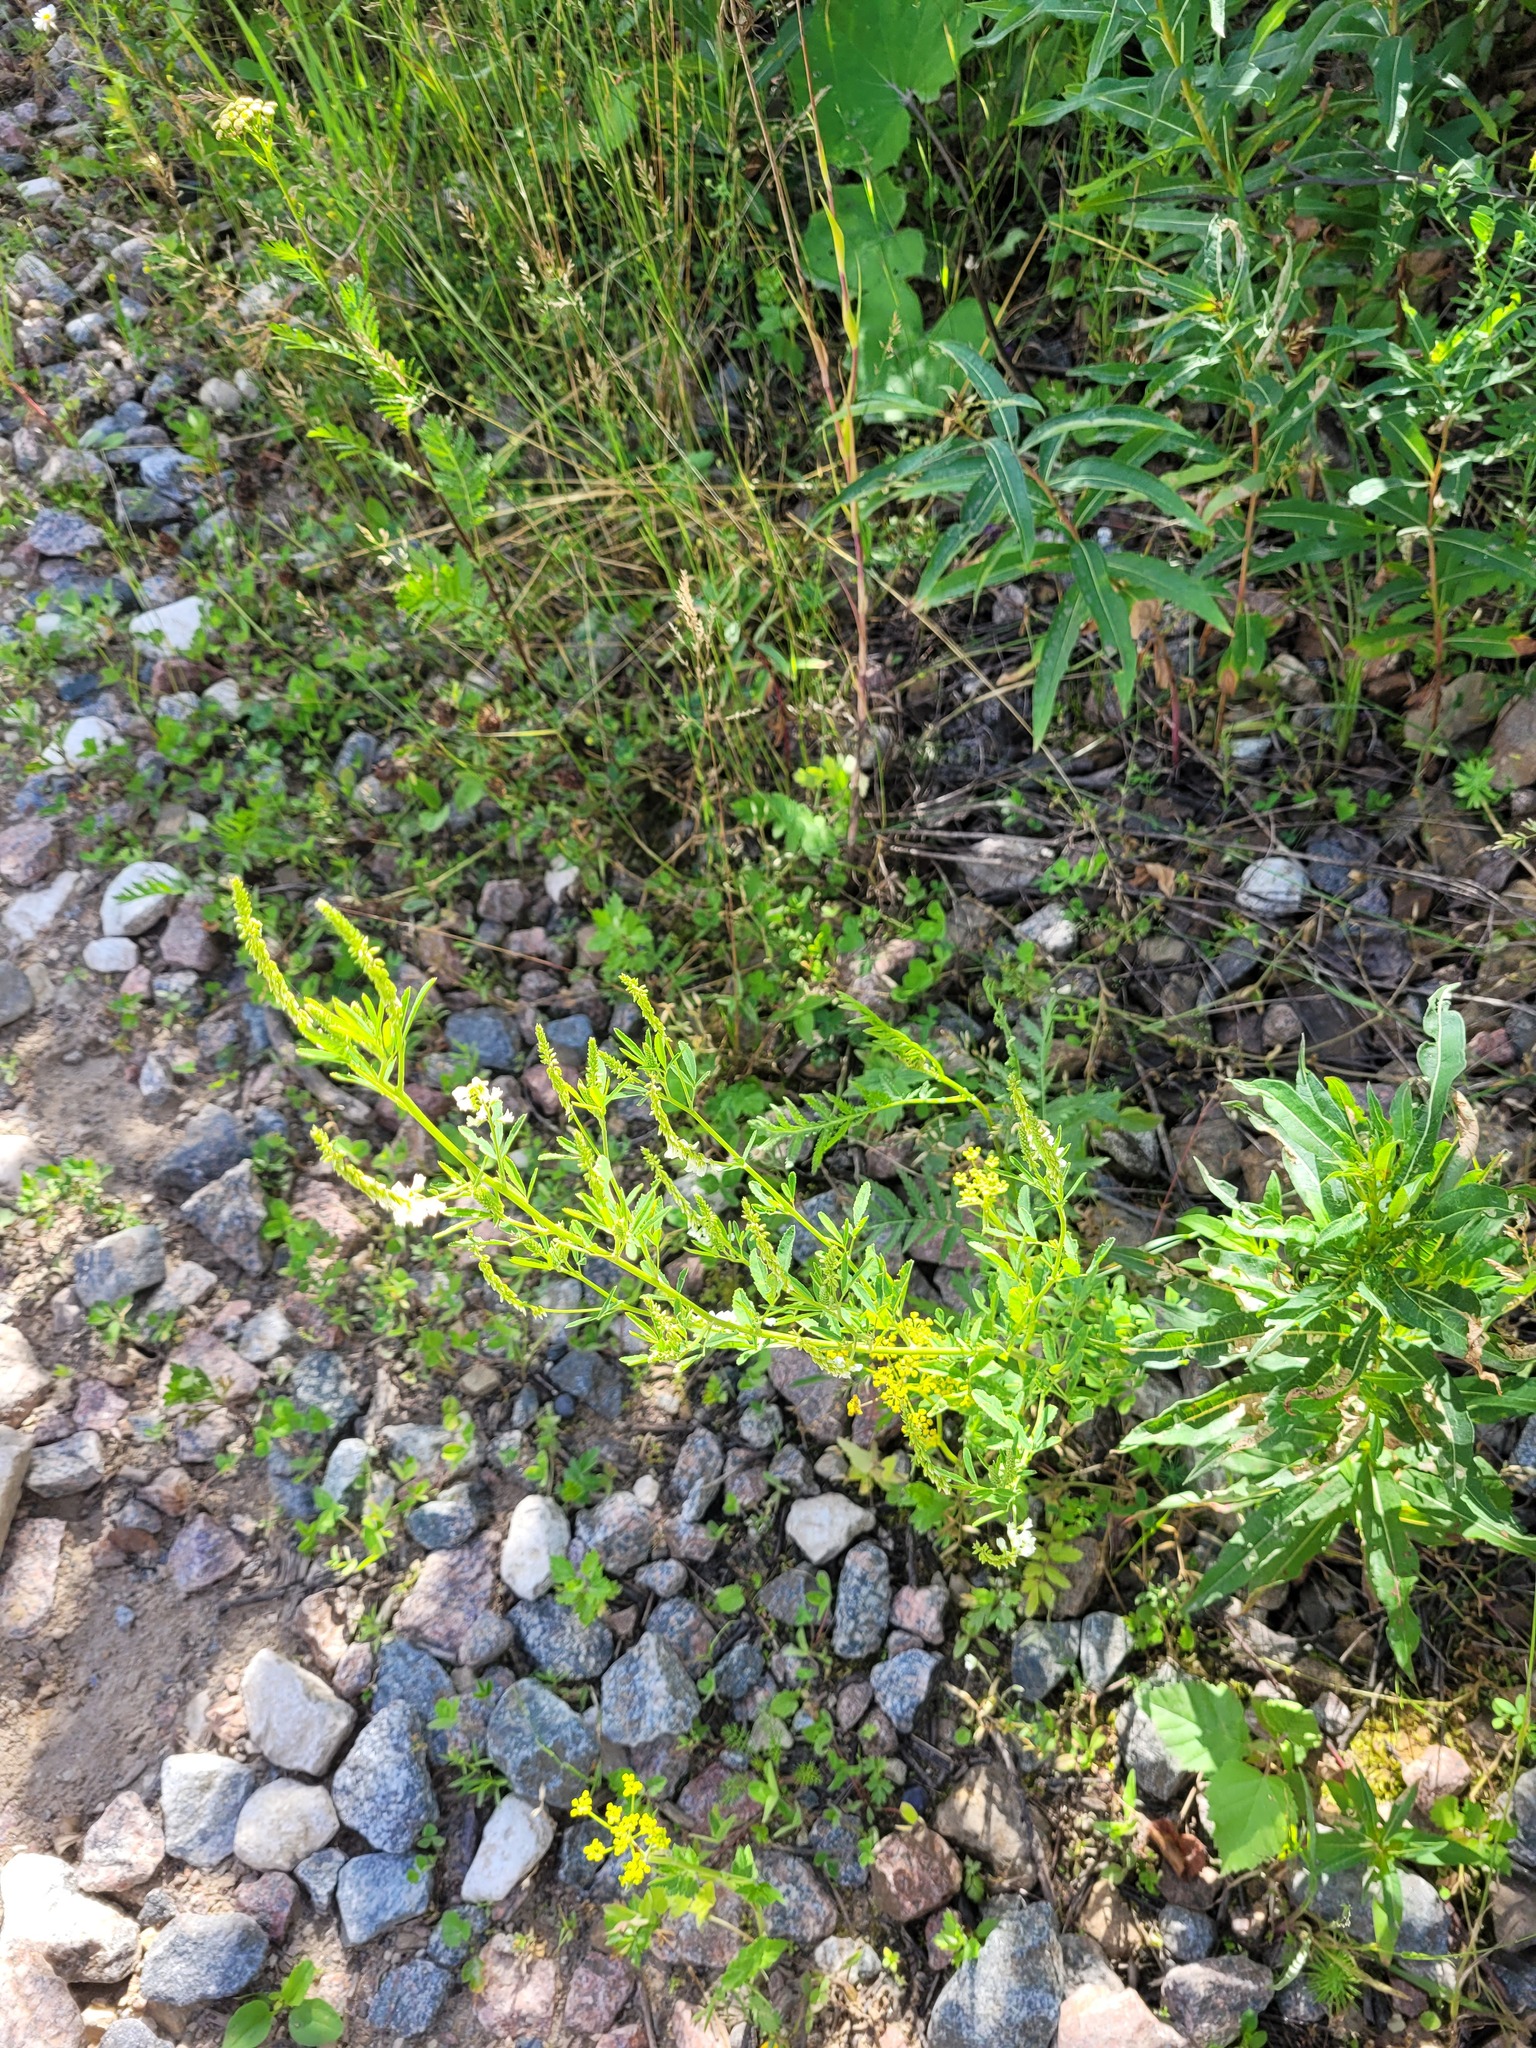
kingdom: Plantae
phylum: Tracheophyta
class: Magnoliopsida
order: Fabales
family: Fabaceae
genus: Melilotus
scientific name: Melilotus albus
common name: White melilot
